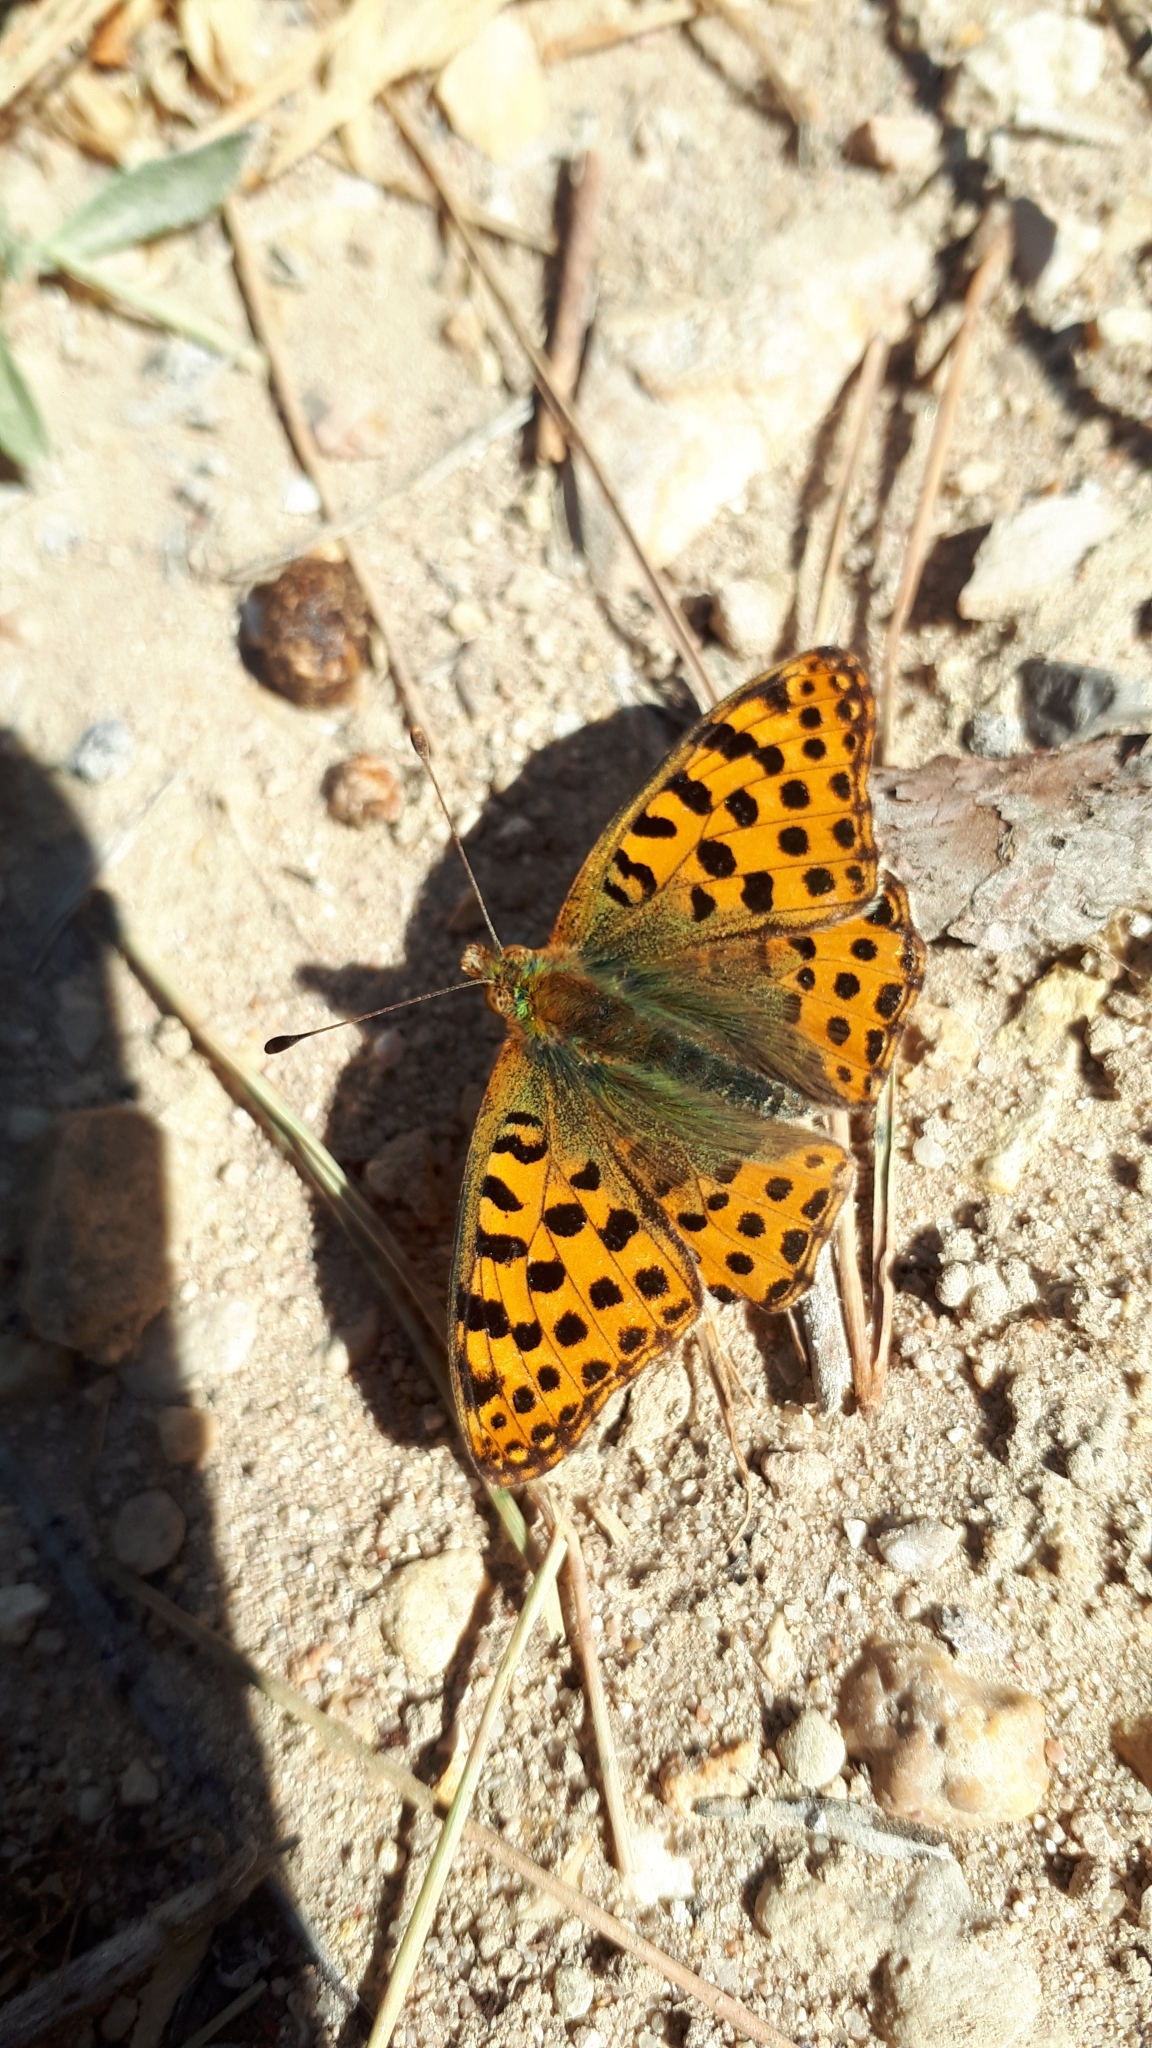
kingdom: Animalia
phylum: Arthropoda
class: Insecta
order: Lepidoptera
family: Nymphalidae
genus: Issoria
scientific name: Issoria lathonia
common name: Queen of spain fritillary
